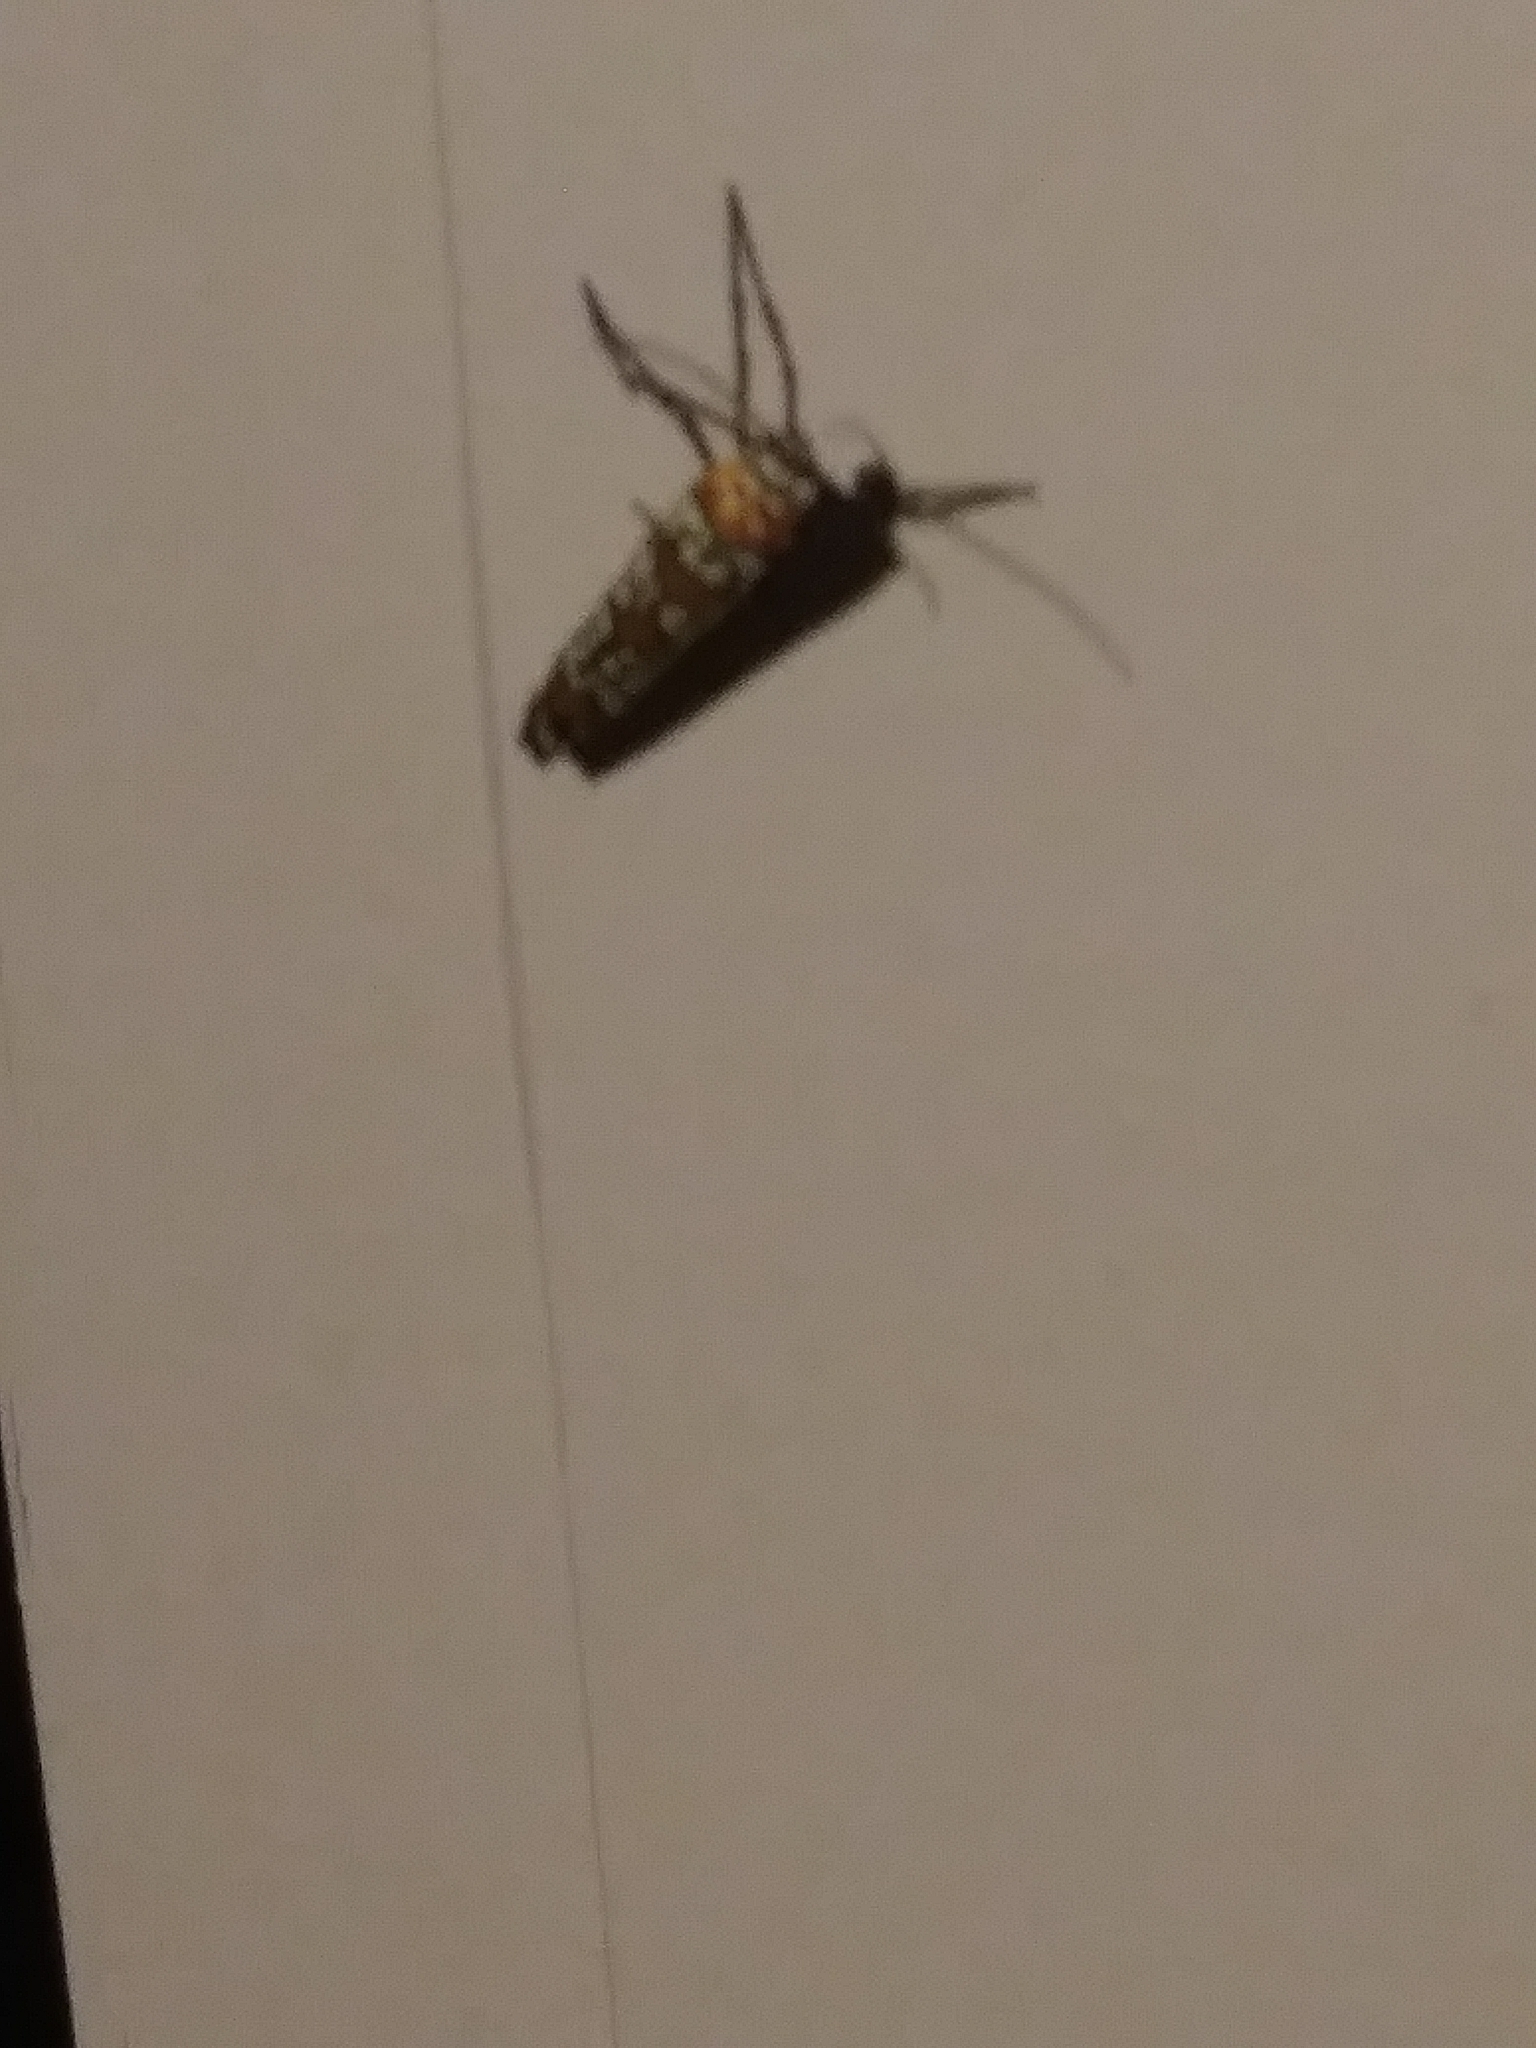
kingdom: Animalia
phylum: Arthropoda
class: Insecta
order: Lepidoptera
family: Attevidae
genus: Atteva
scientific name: Atteva punctella
